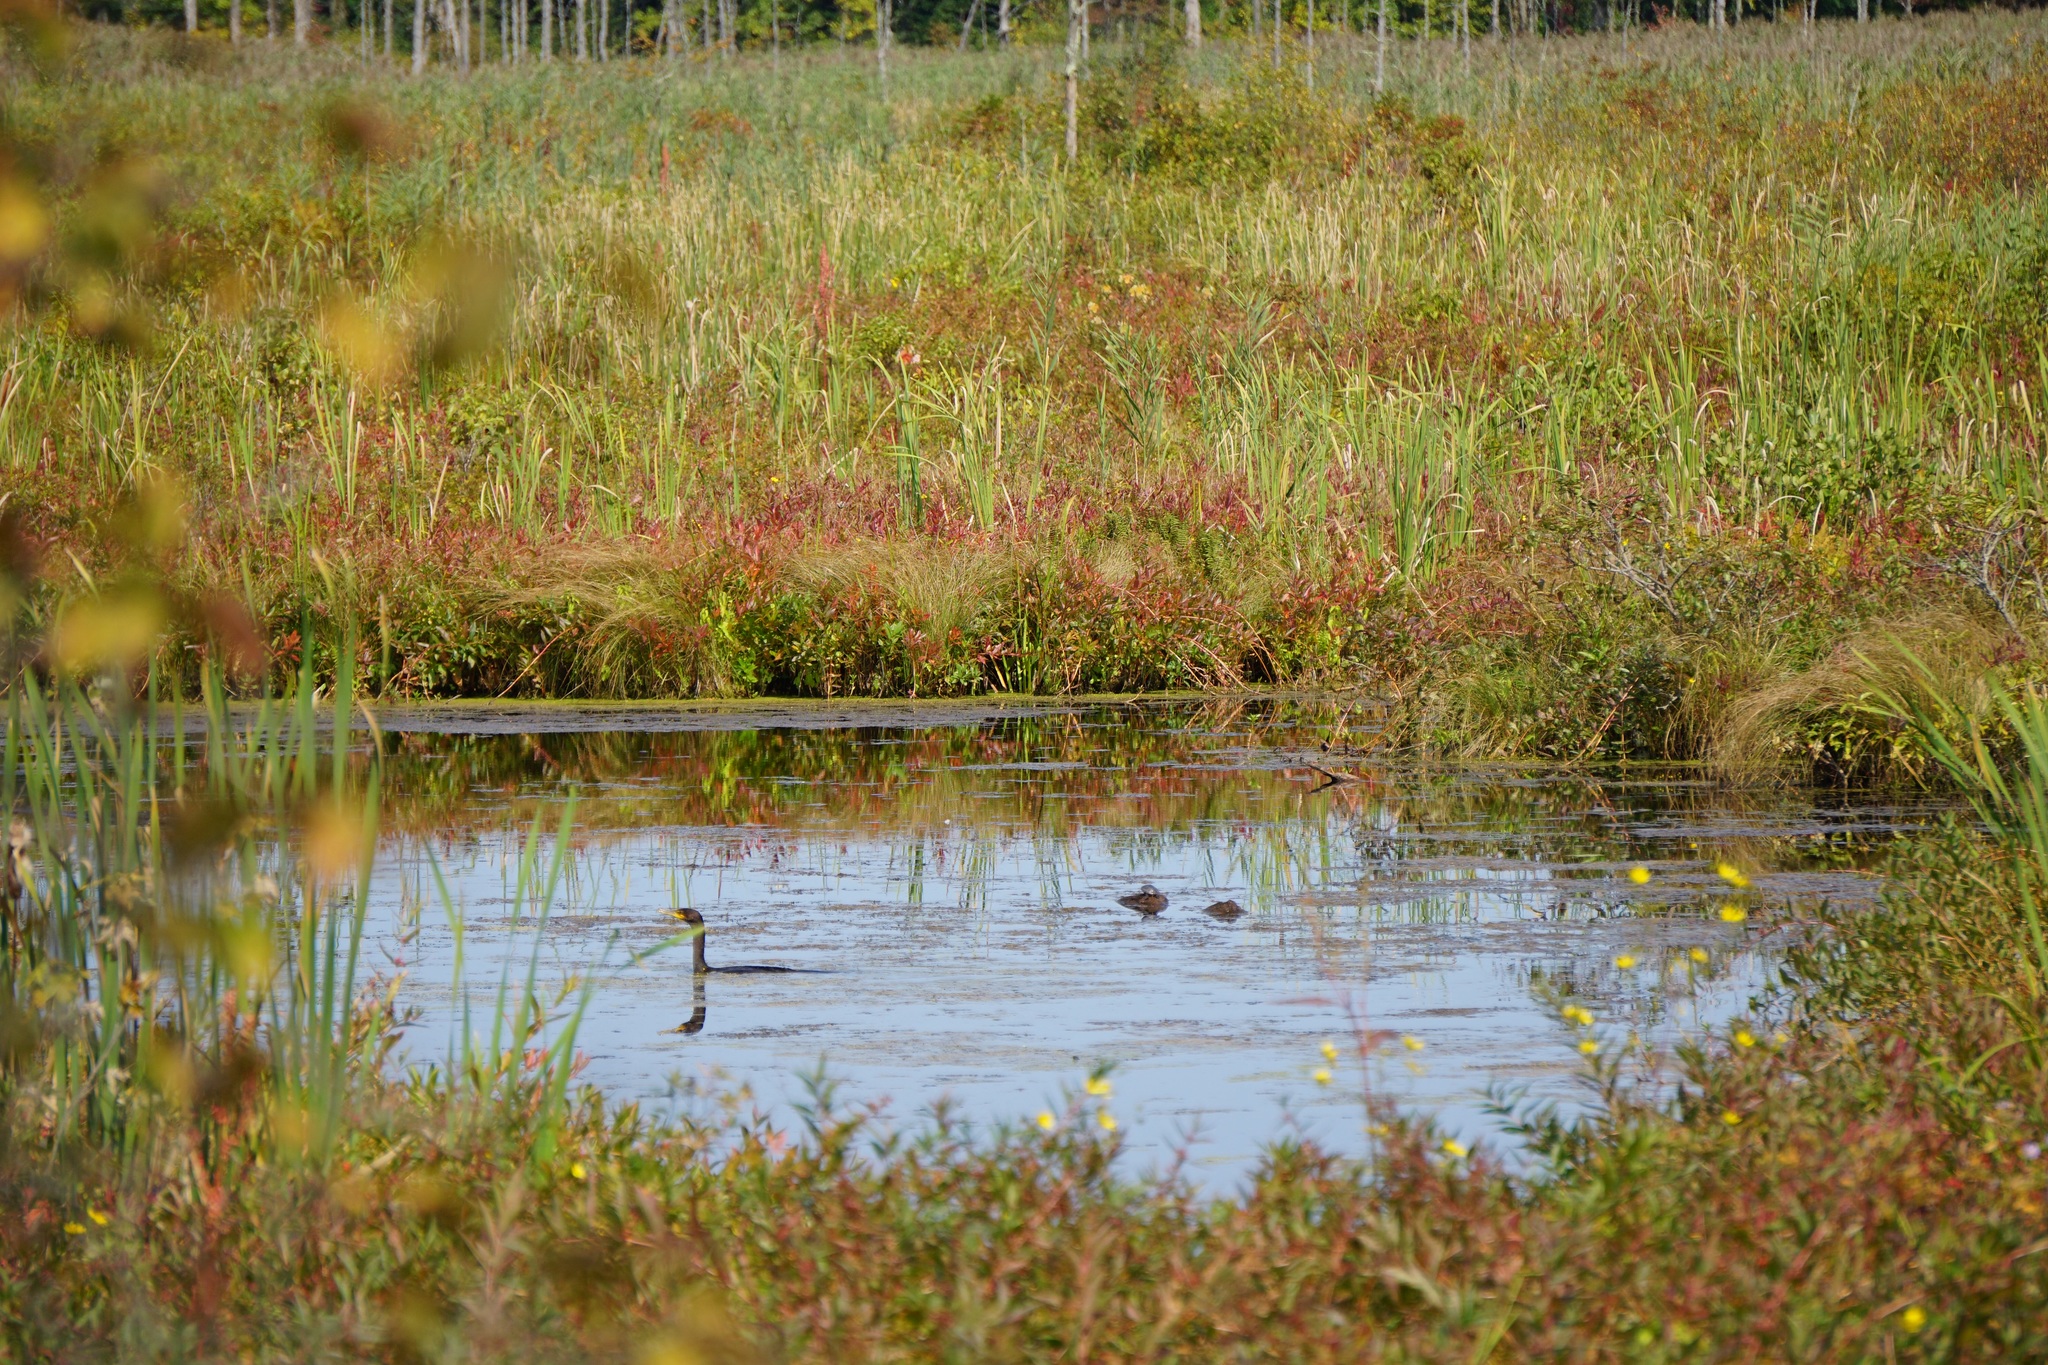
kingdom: Animalia
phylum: Chordata
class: Aves
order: Suliformes
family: Phalacrocoracidae
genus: Phalacrocorax
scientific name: Phalacrocorax auritus
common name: Double-crested cormorant
